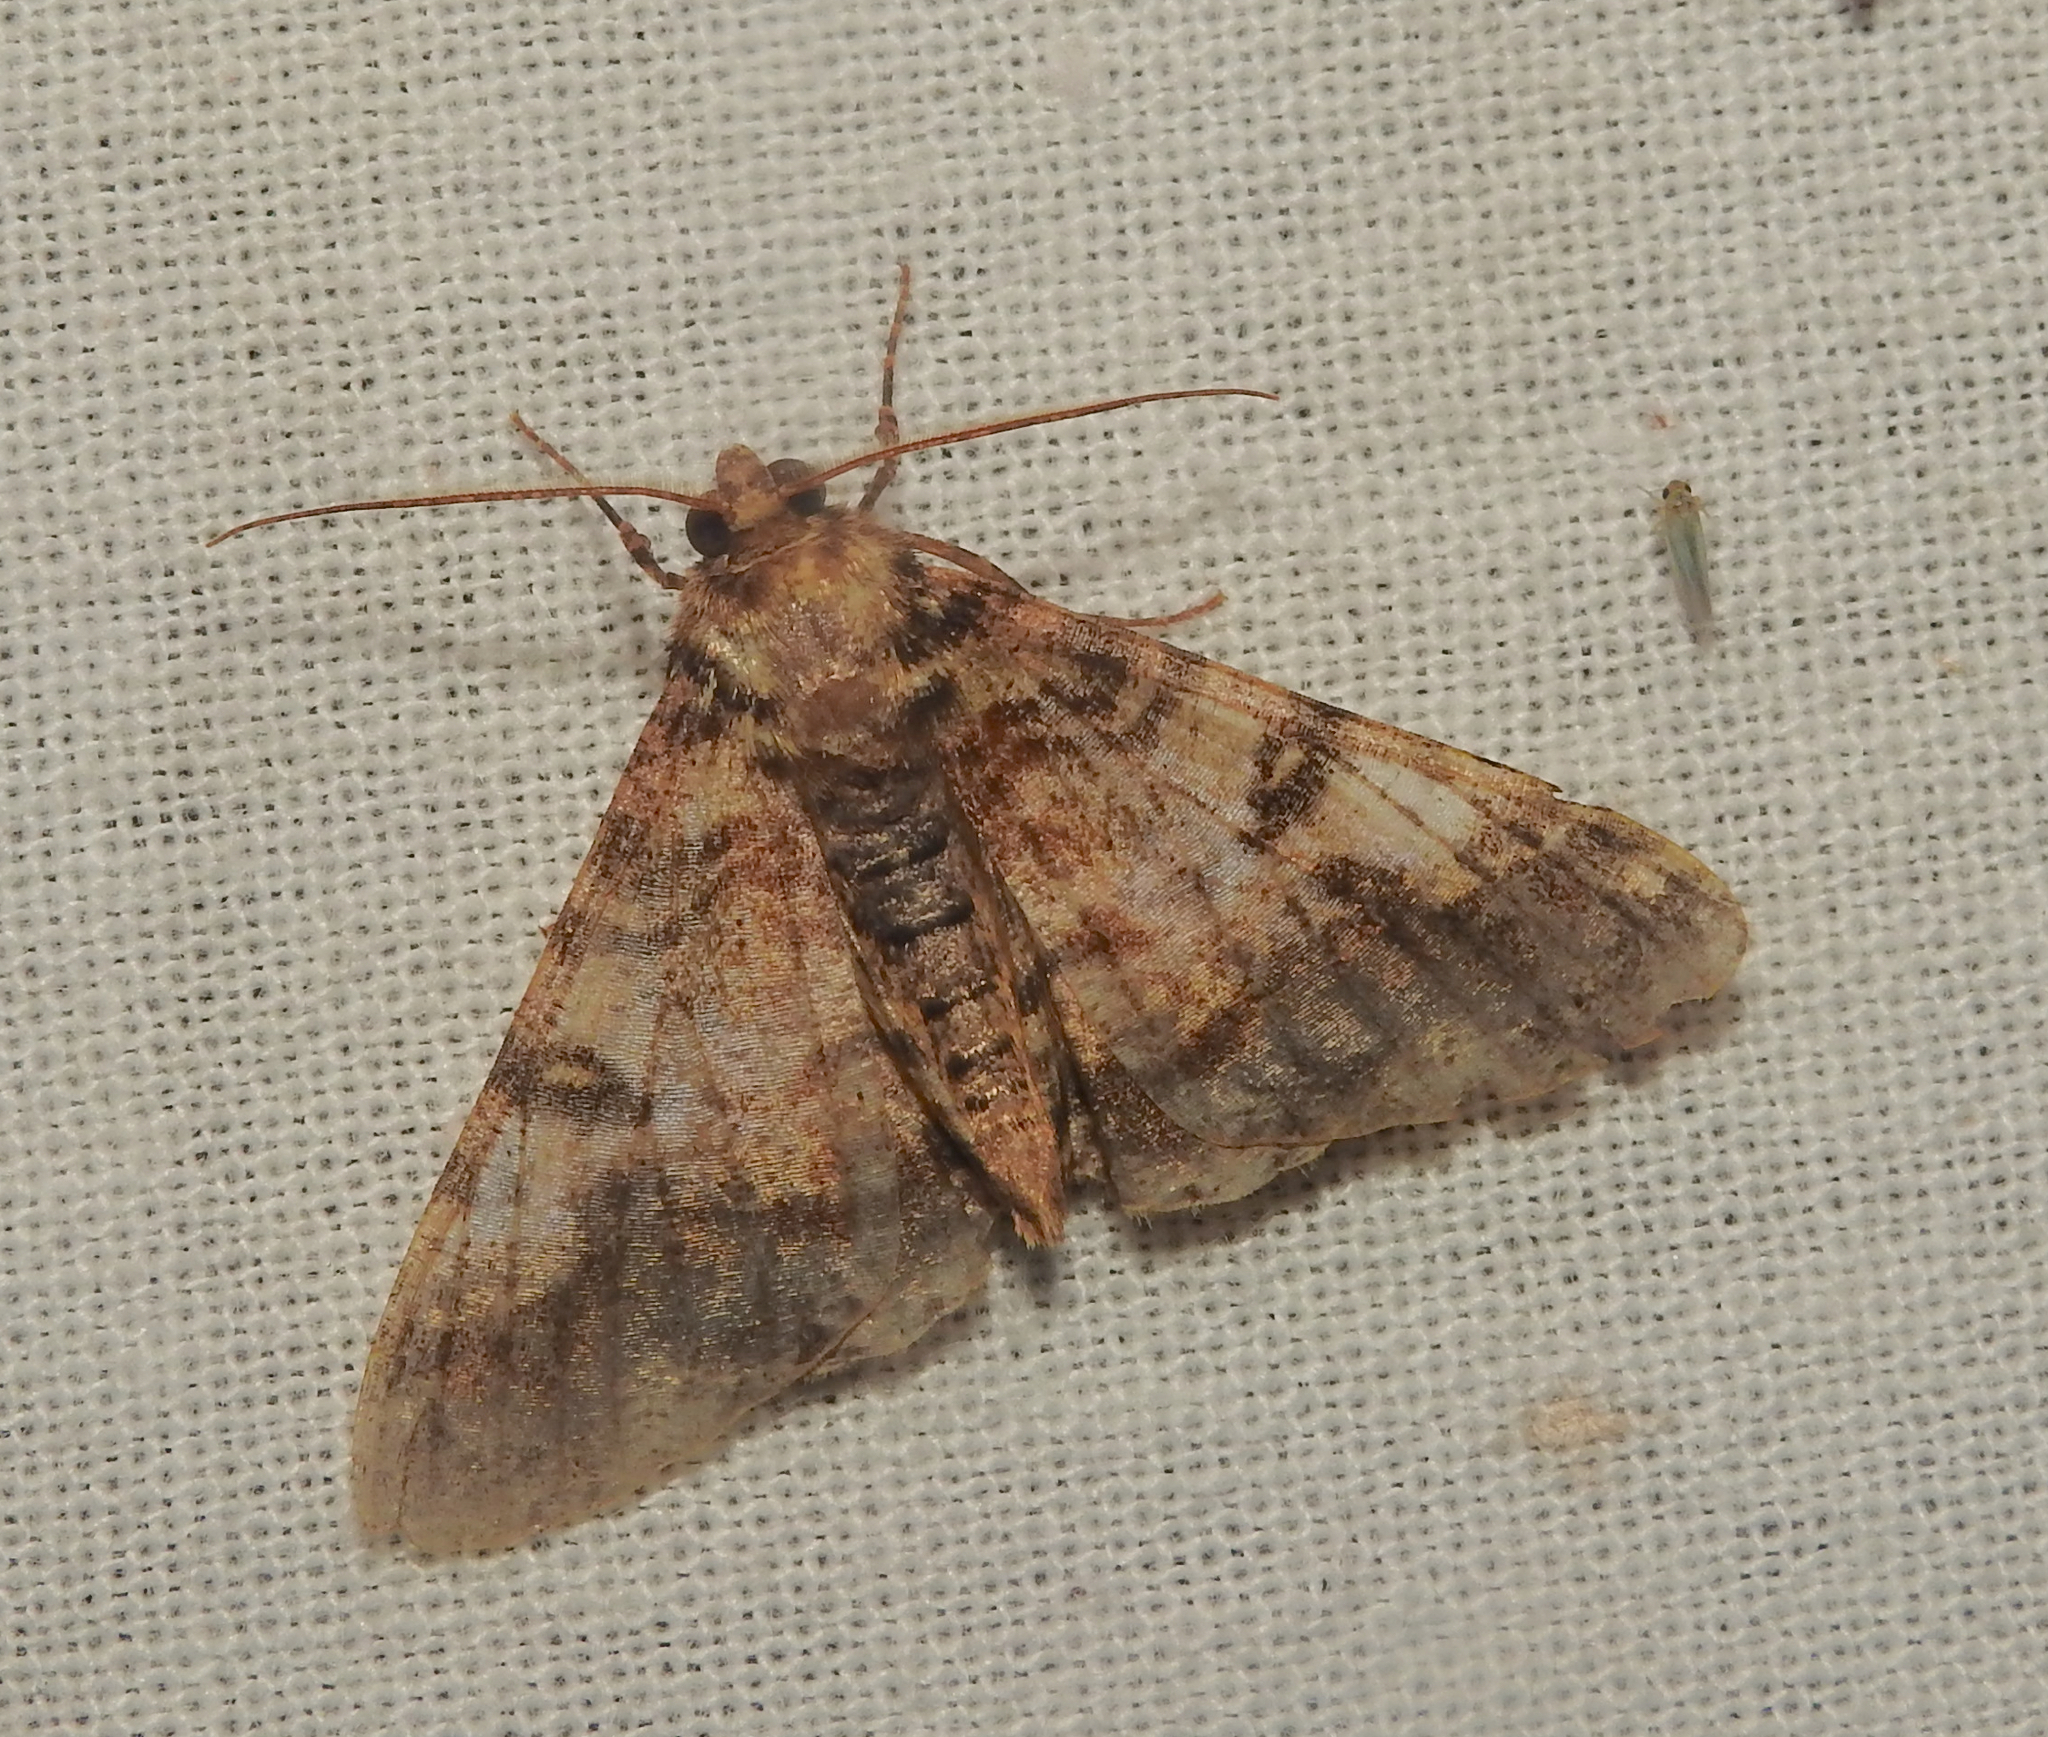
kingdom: Animalia
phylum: Arthropoda
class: Insecta
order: Lepidoptera
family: Geometridae
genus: Gasterocome
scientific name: Gasterocome pannosaria
